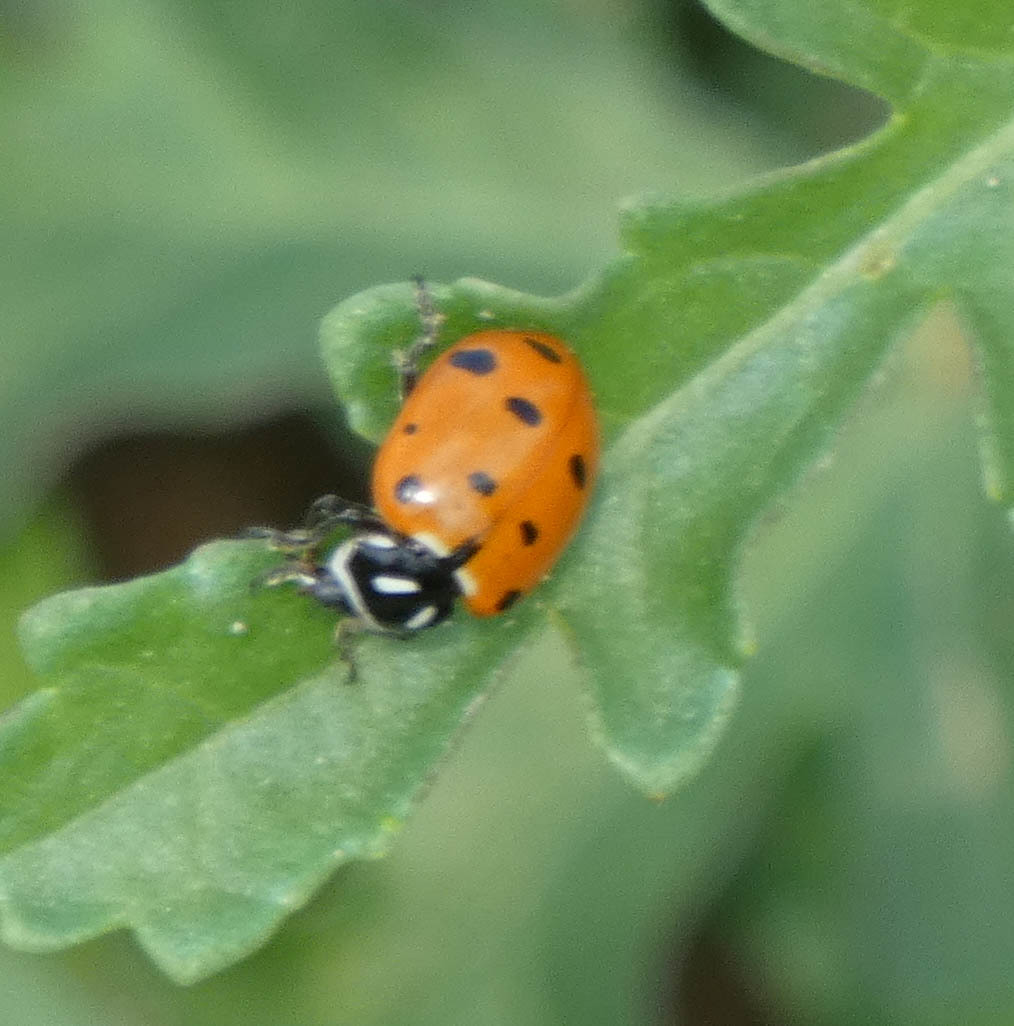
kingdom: Animalia
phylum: Arthropoda
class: Insecta
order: Coleoptera
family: Coccinellidae
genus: Hippodamia
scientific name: Hippodamia convergens
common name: Convergent lady beetle
